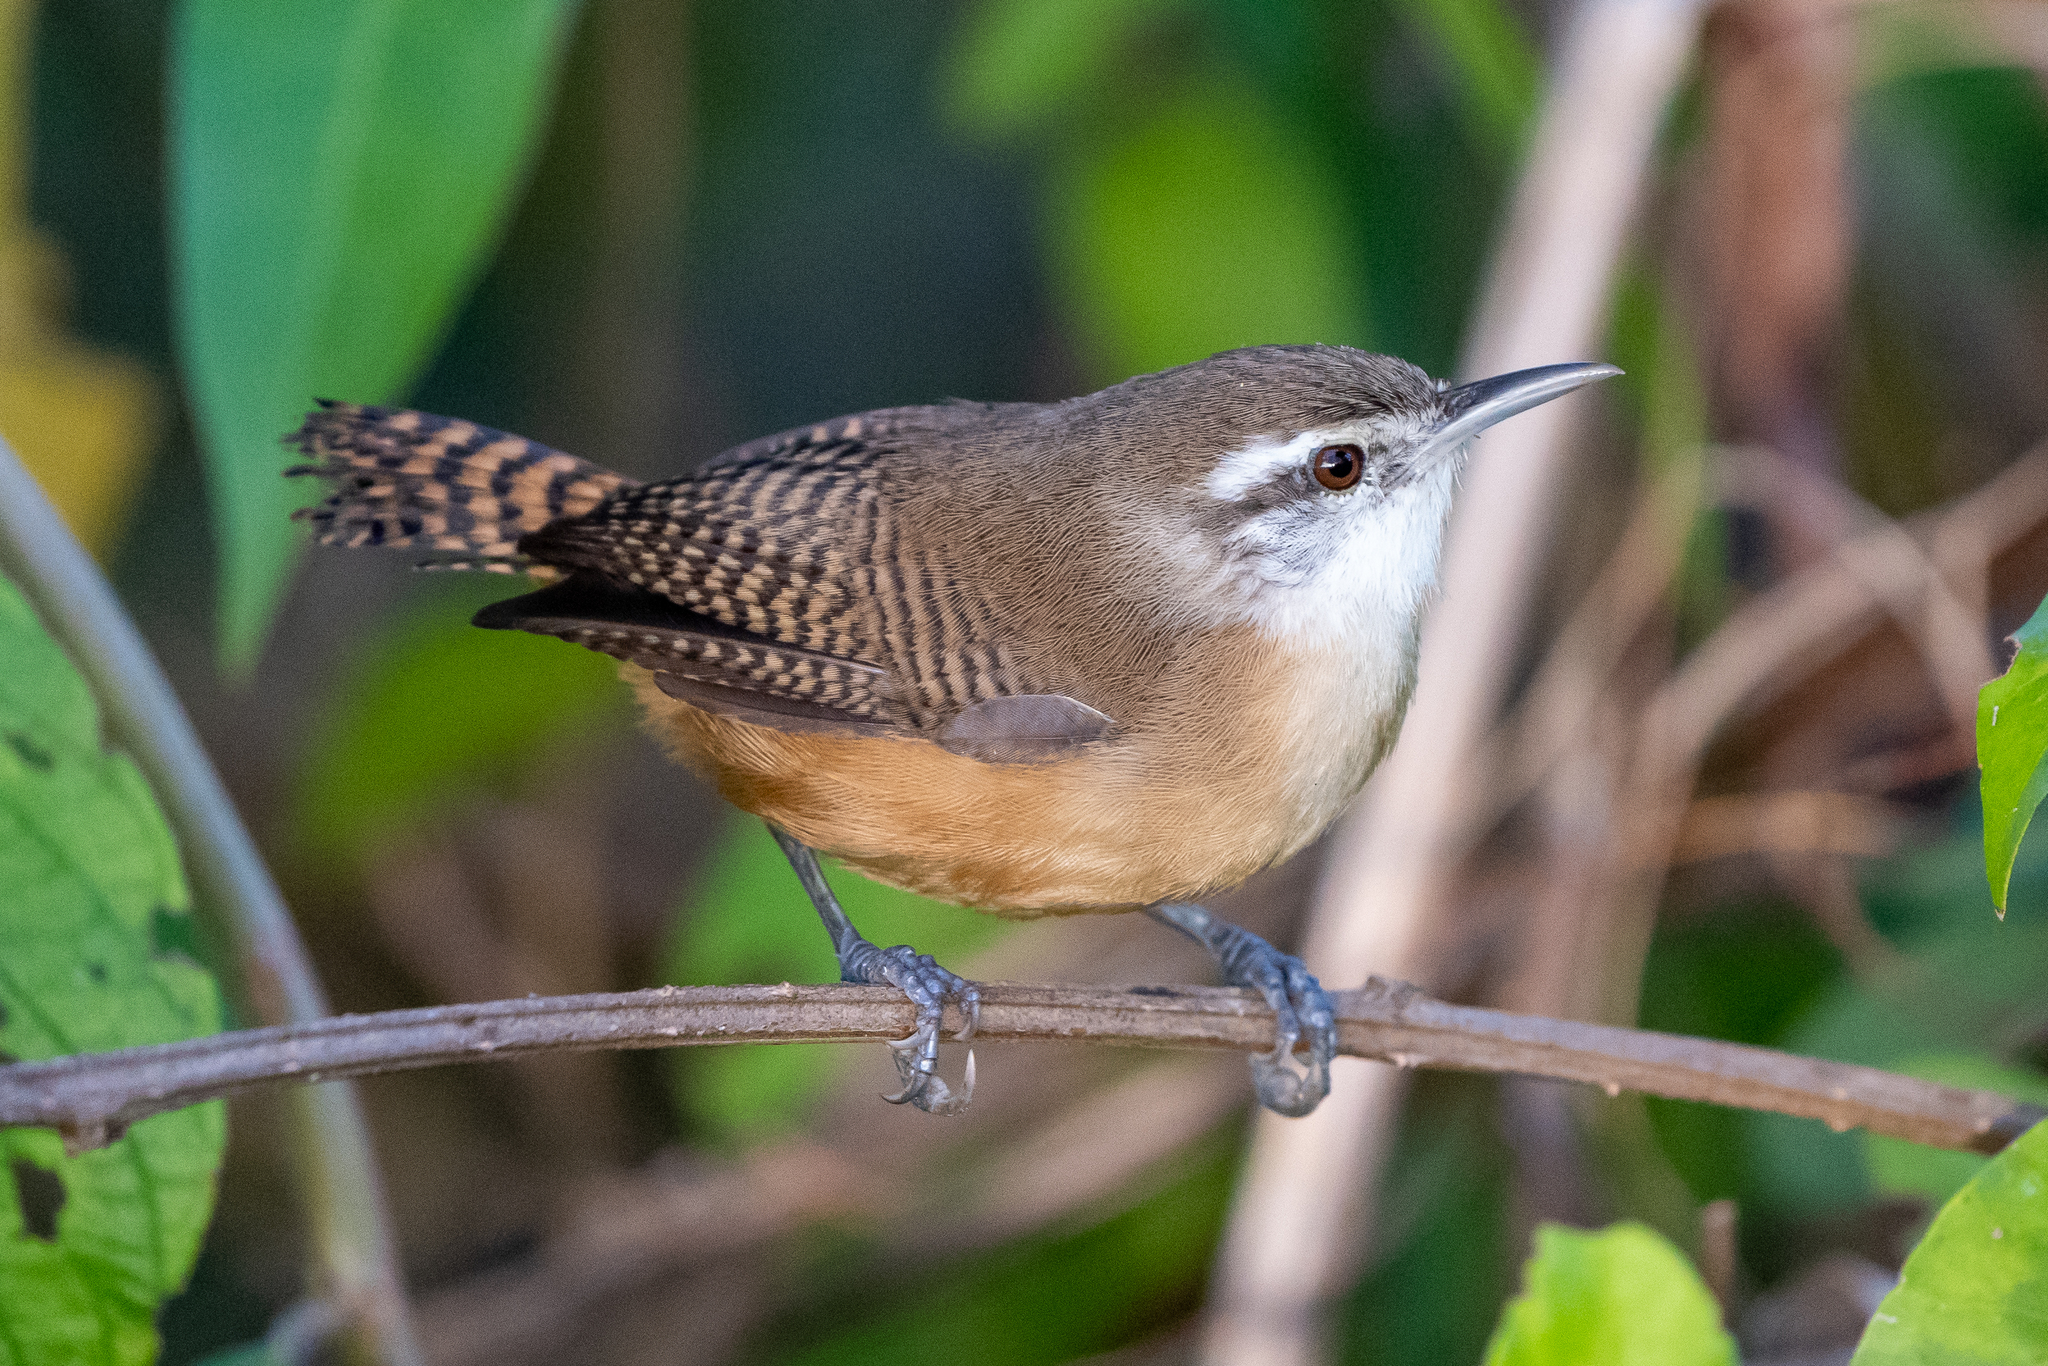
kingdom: Animalia
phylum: Chordata
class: Aves
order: Passeriformes
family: Troglodytidae
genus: Cantorchilus
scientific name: Cantorchilus leucotis
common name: Buff-breasted wren
